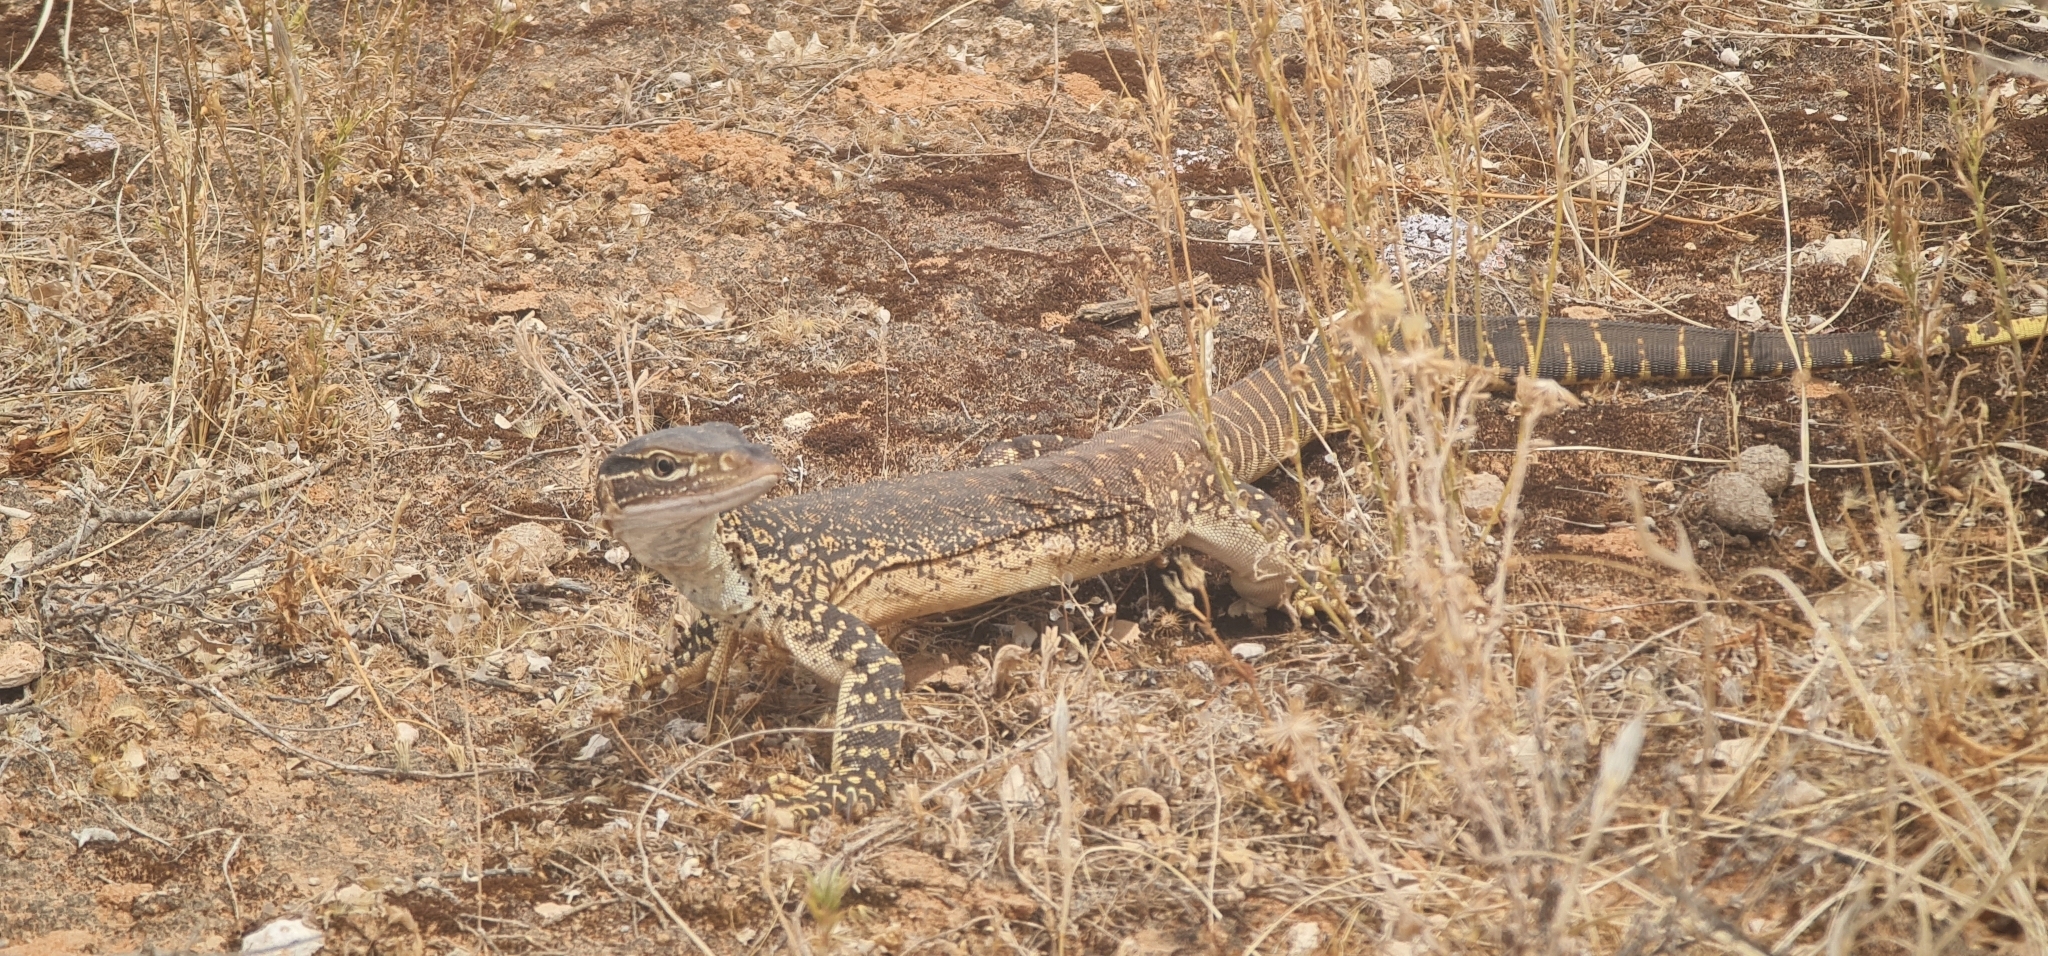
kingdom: Animalia
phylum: Chordata
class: Squamata
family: Varanidae
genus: Varanus
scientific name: Varanus gouldii
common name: Gould's goanna
